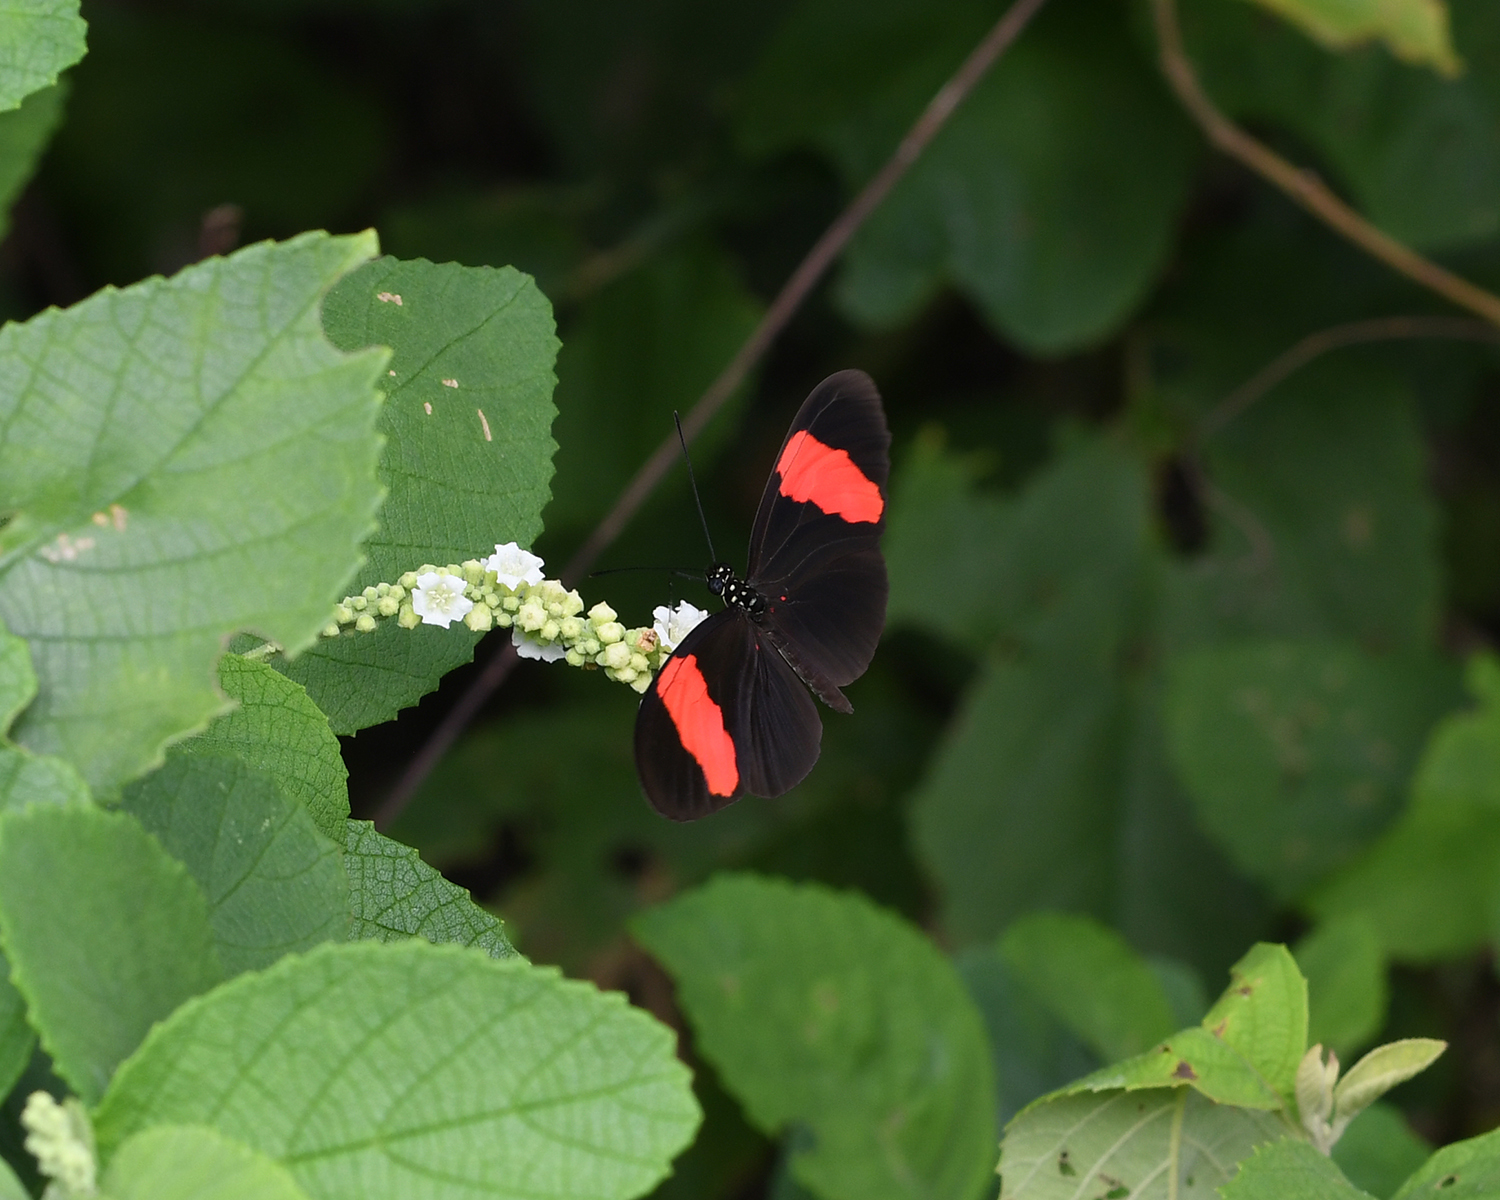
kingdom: Animalia
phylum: Arthropoda
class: Insecta
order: Lepidoptera
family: Nymphalidae
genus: Heliconius
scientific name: Heliconius erato
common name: Common patch longwing
